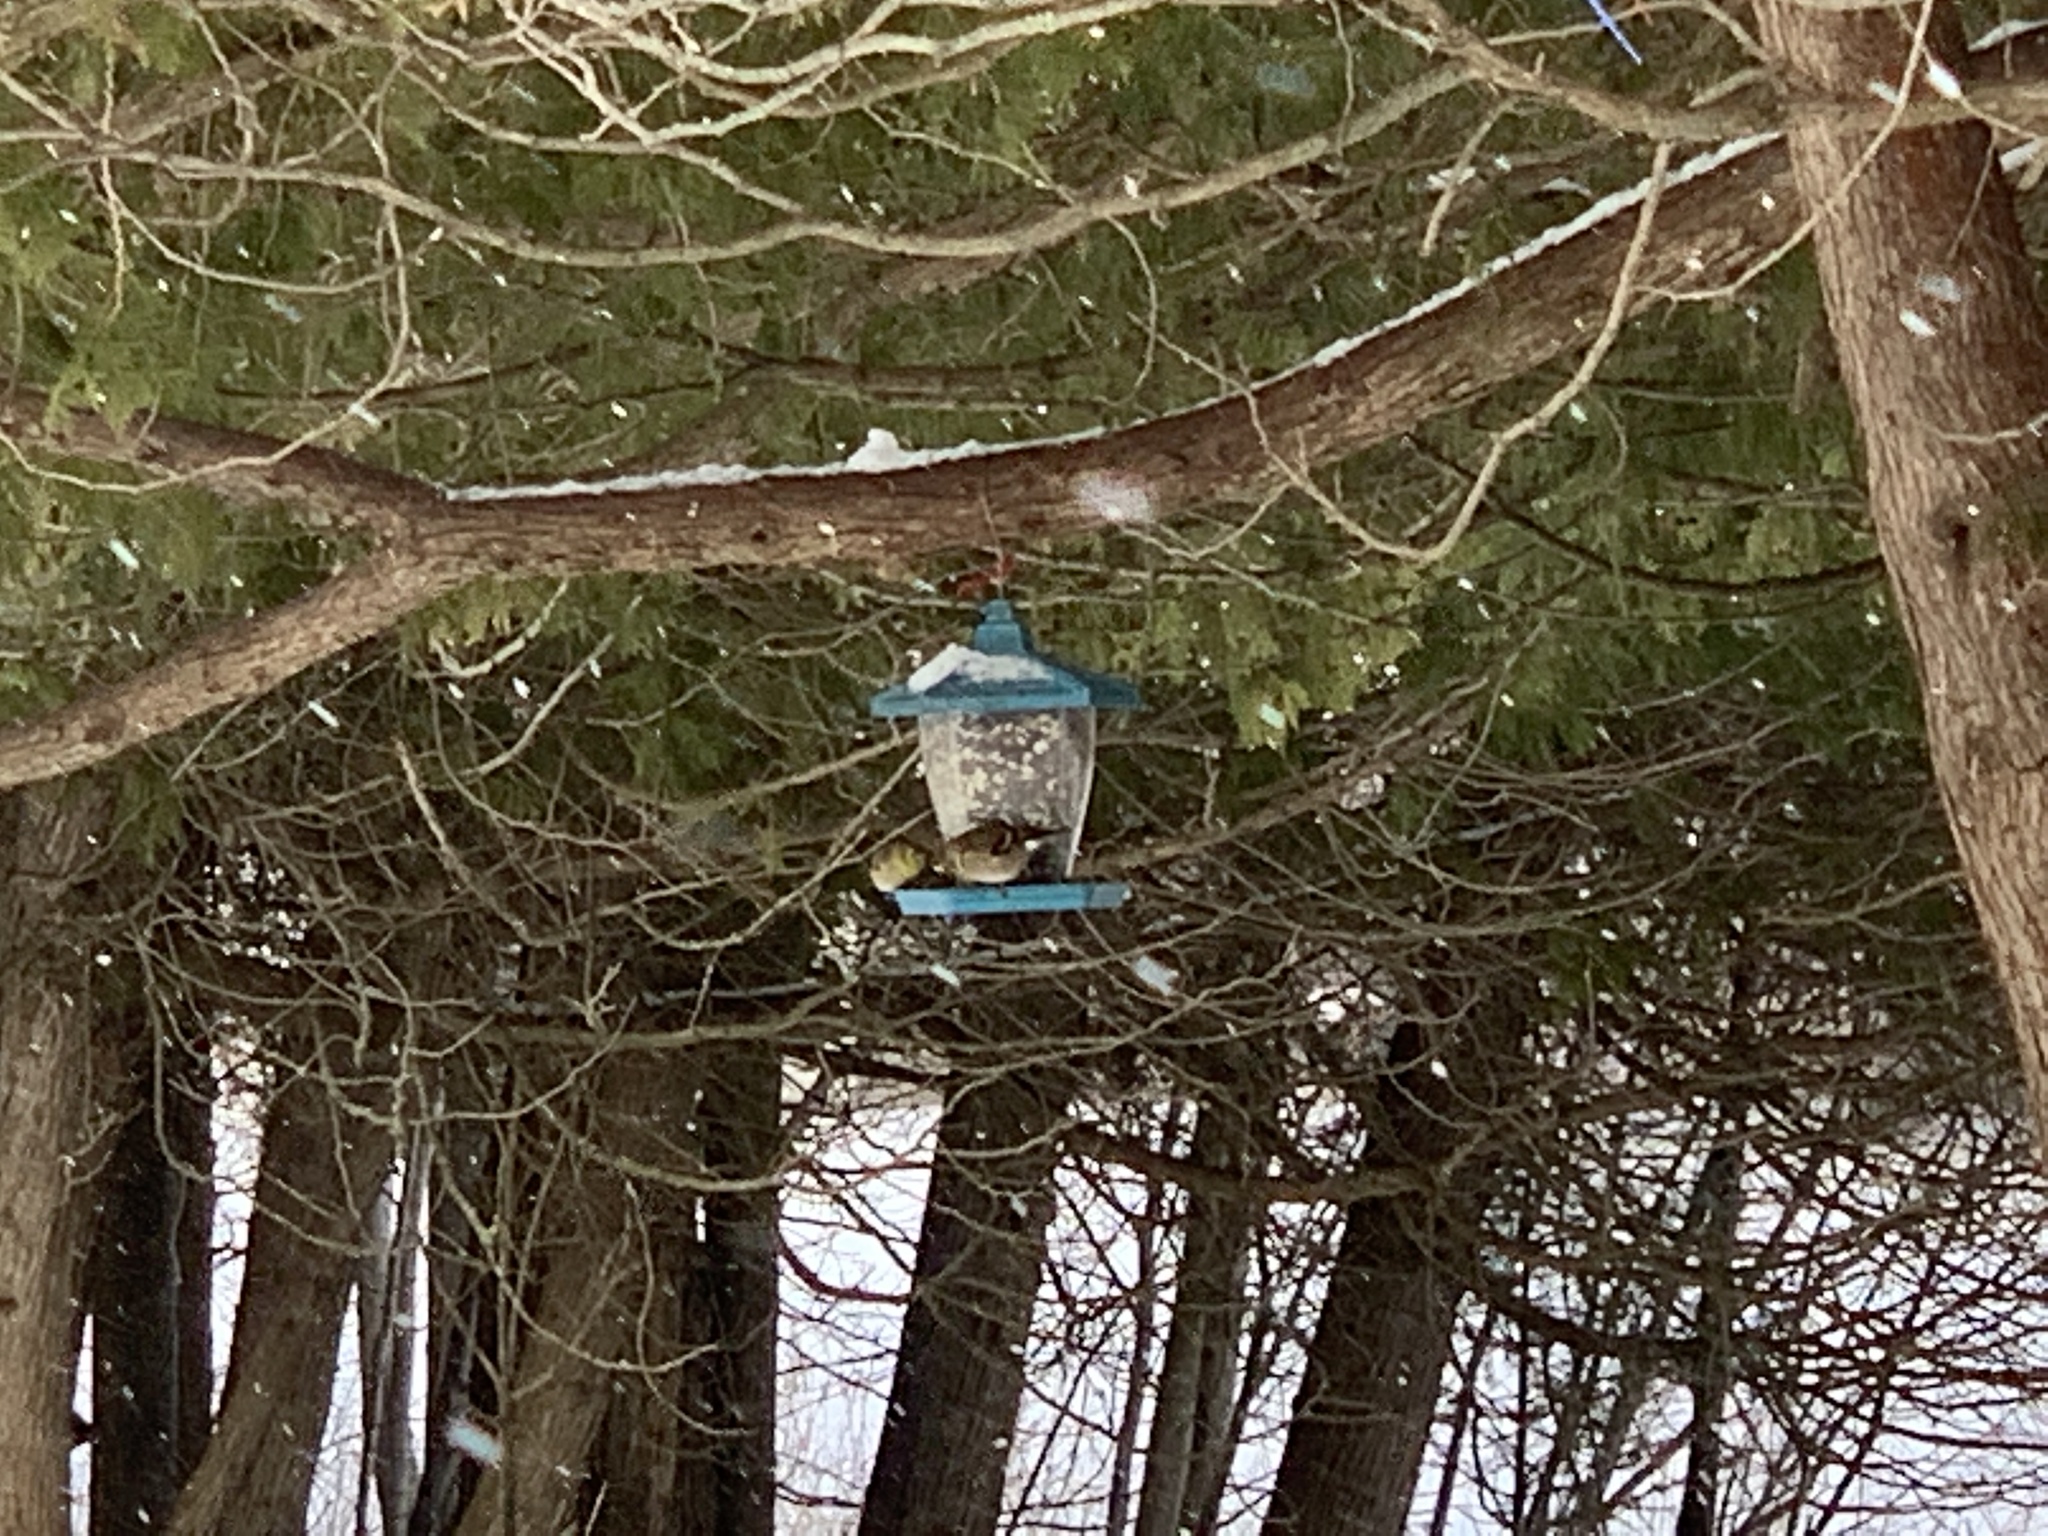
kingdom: Animalia
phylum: Chordata
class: Aves
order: Passeriformes
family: Fringillidae
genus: Spinus
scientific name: Spinus tristis
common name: American goldfinch
